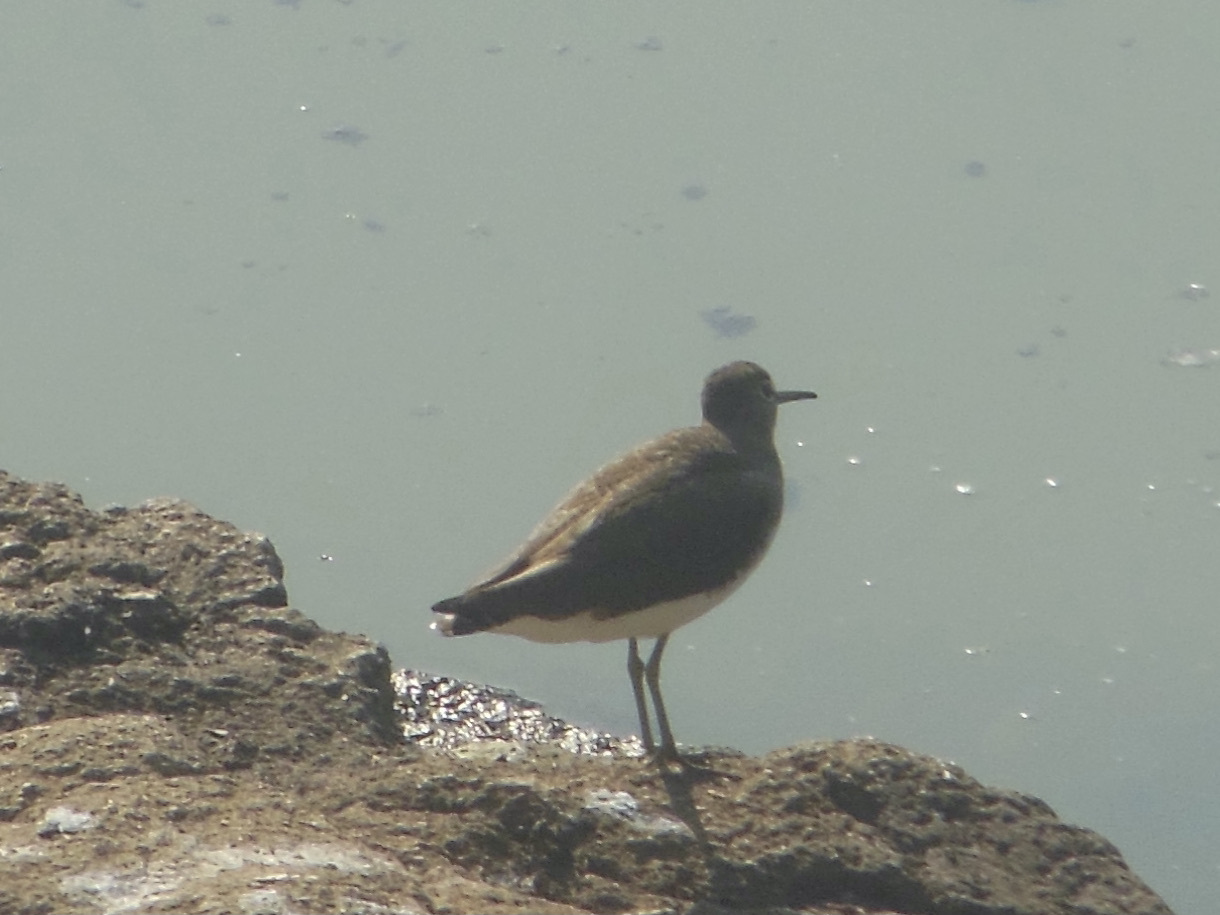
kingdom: Animalia
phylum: Chordata
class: Aves
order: Charadriiformes
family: Scolopacidae
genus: Tringa
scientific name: Tringa ochropus
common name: Green sandpiper
